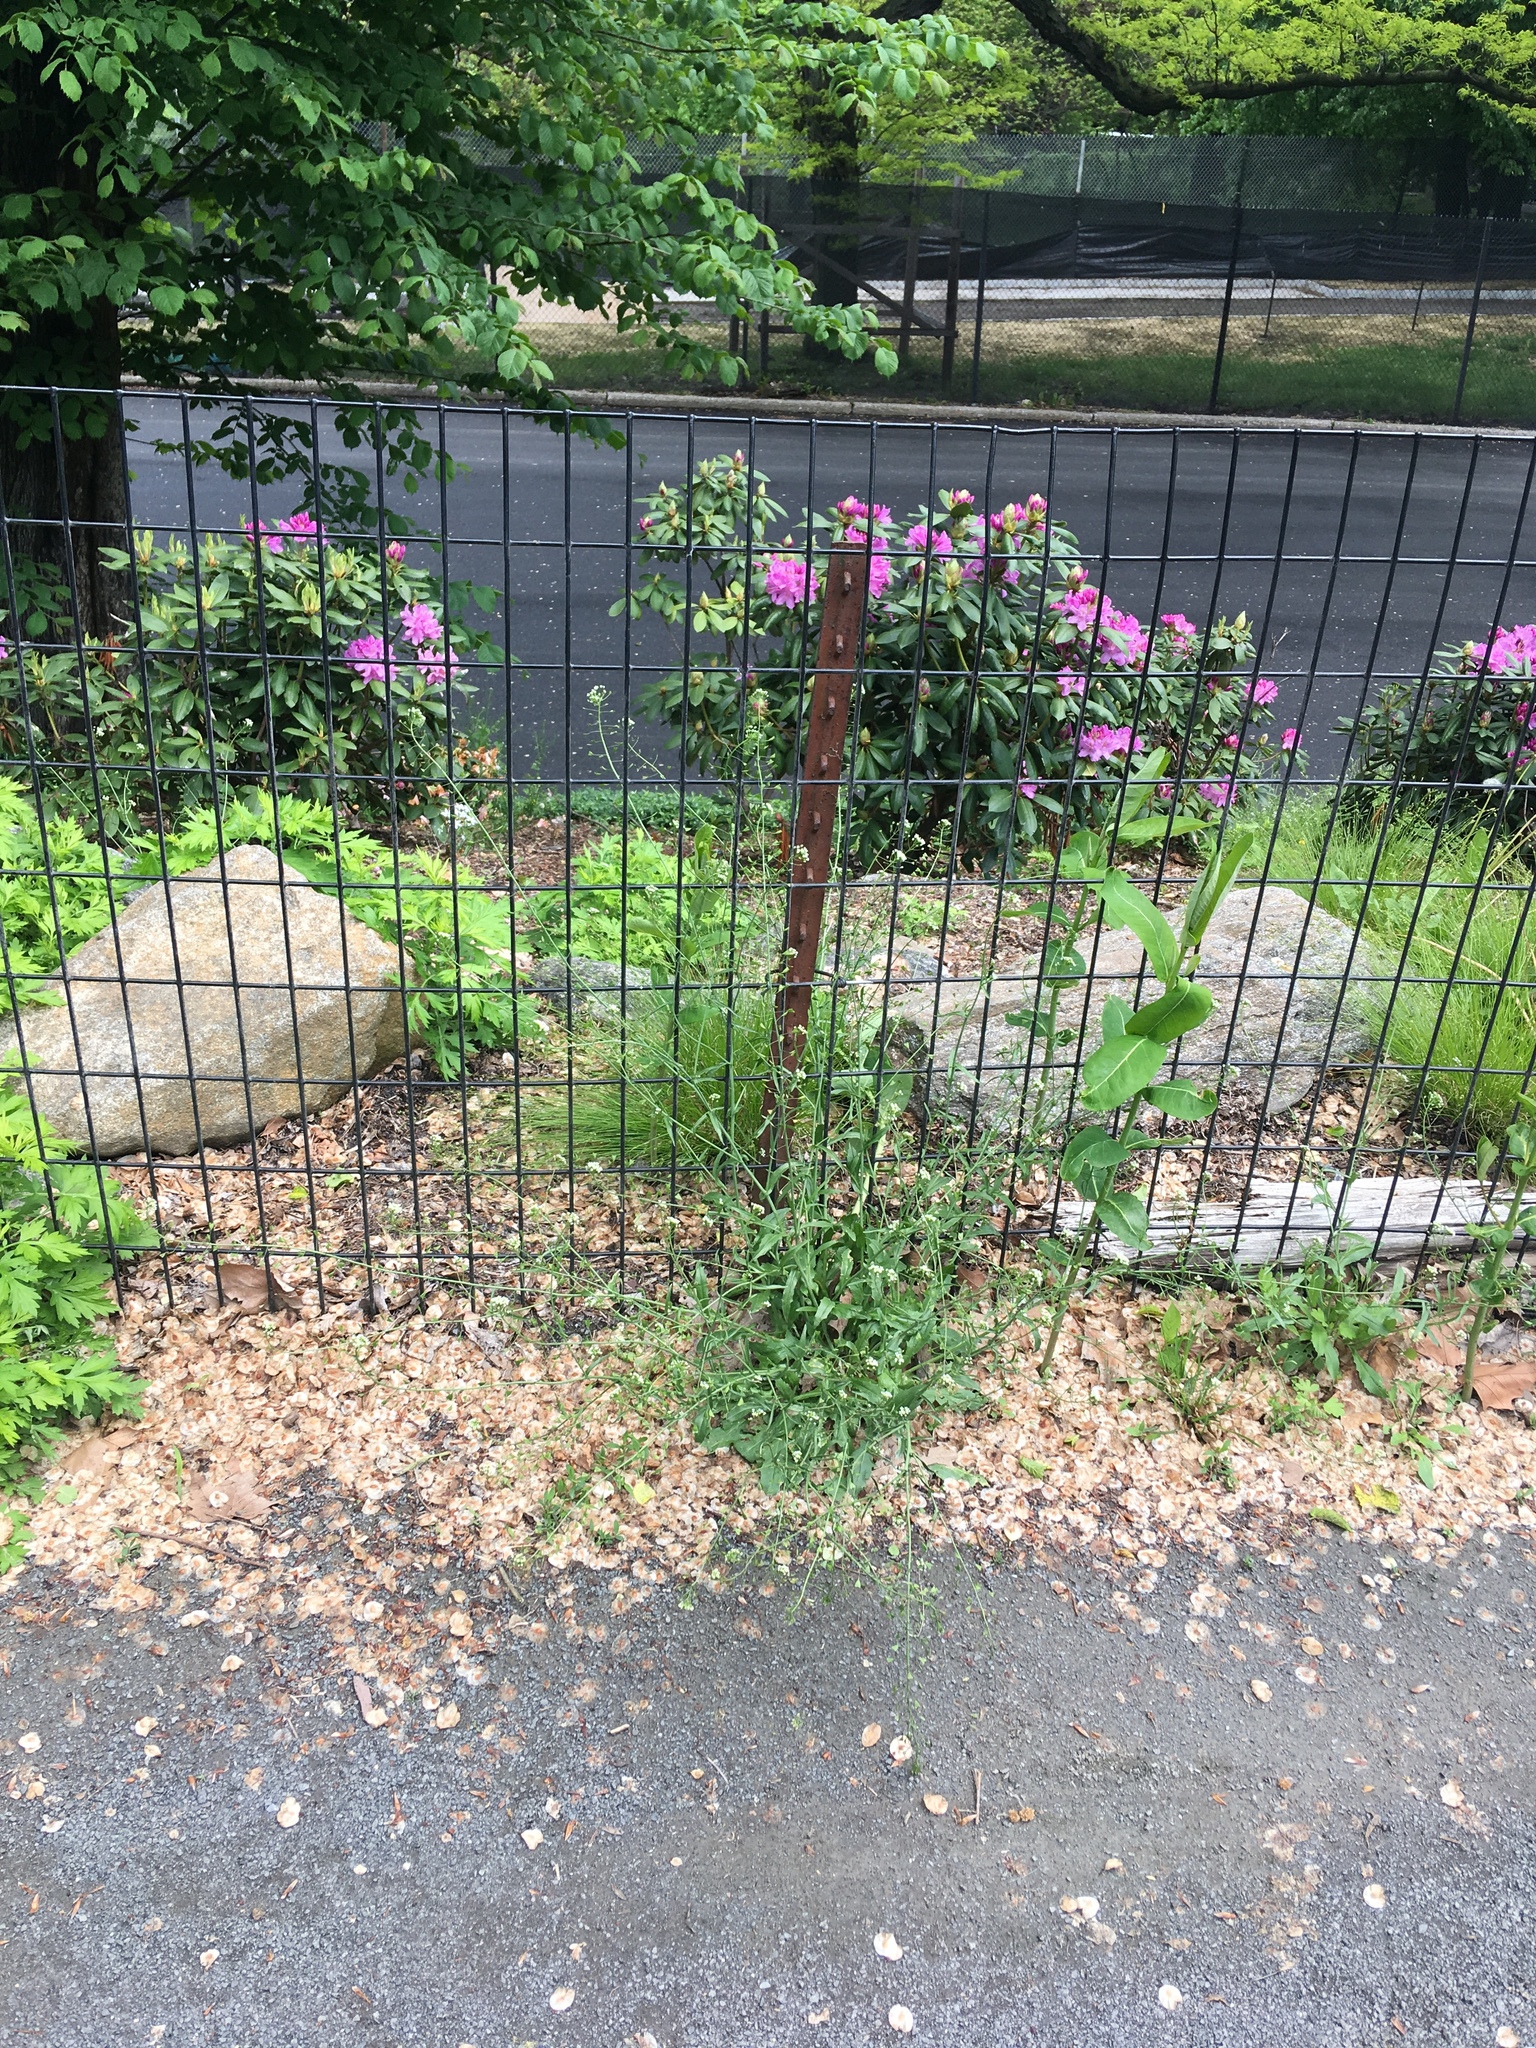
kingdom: Plantae
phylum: Tracheophyta
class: Magnoliopsida
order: Brassicales
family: Brassicaceae
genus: Capsella
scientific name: Capsella bursa-pastoris
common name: Shepherd's purse
